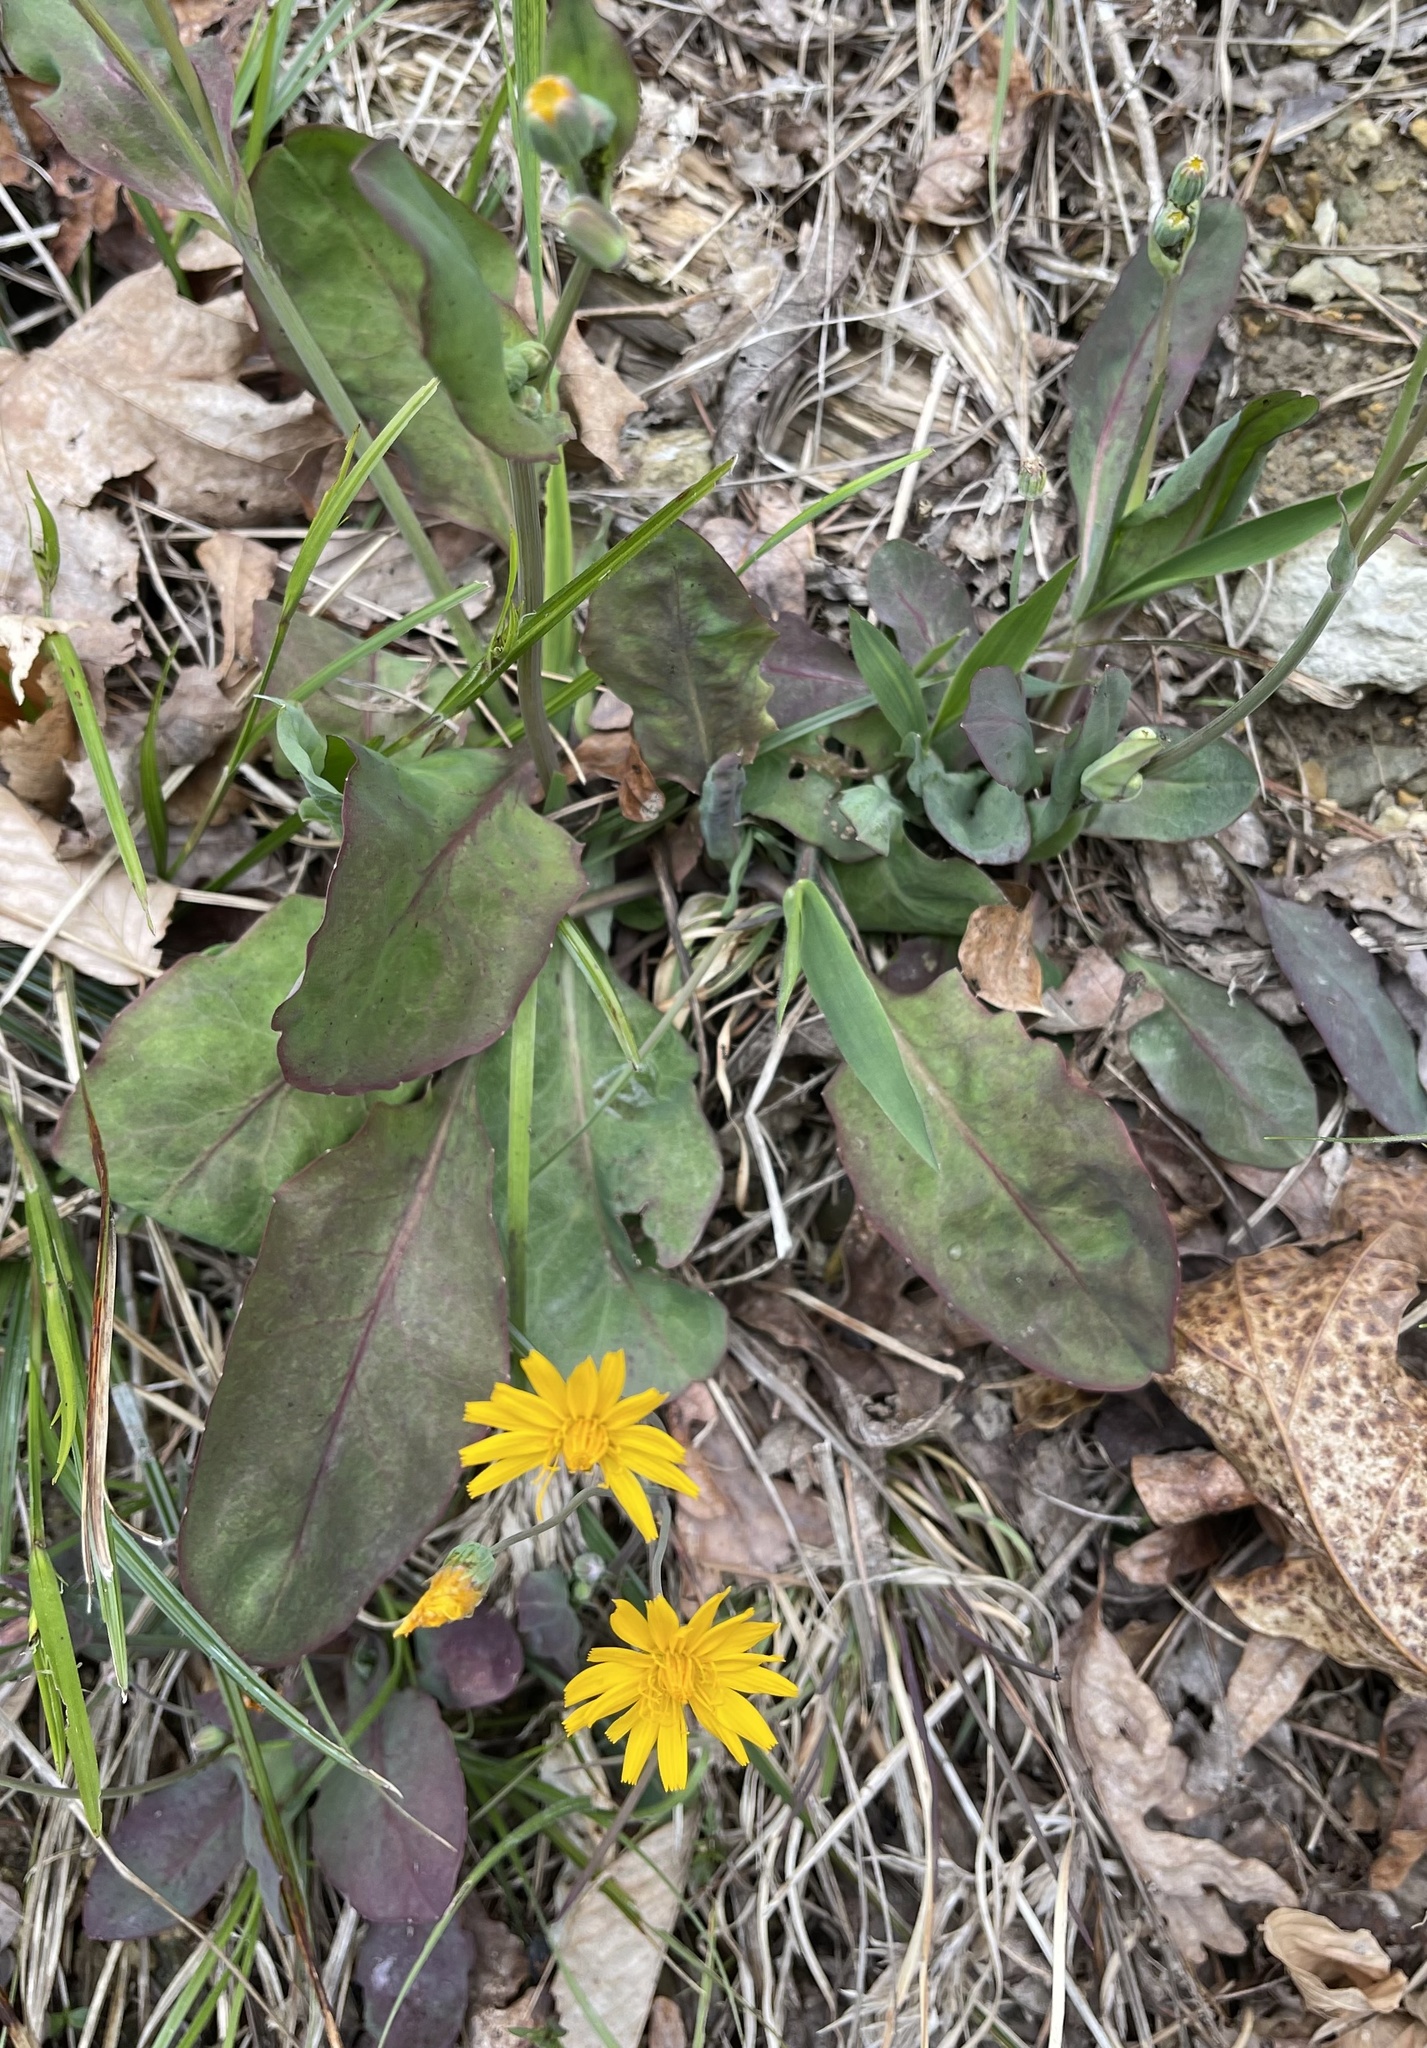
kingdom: Plantae
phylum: Tracheophyta
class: Magnoliopsida
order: Asterales
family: Asteraceae
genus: Krigia
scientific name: Krigia biflora
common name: Orange dwarf-dandelion
